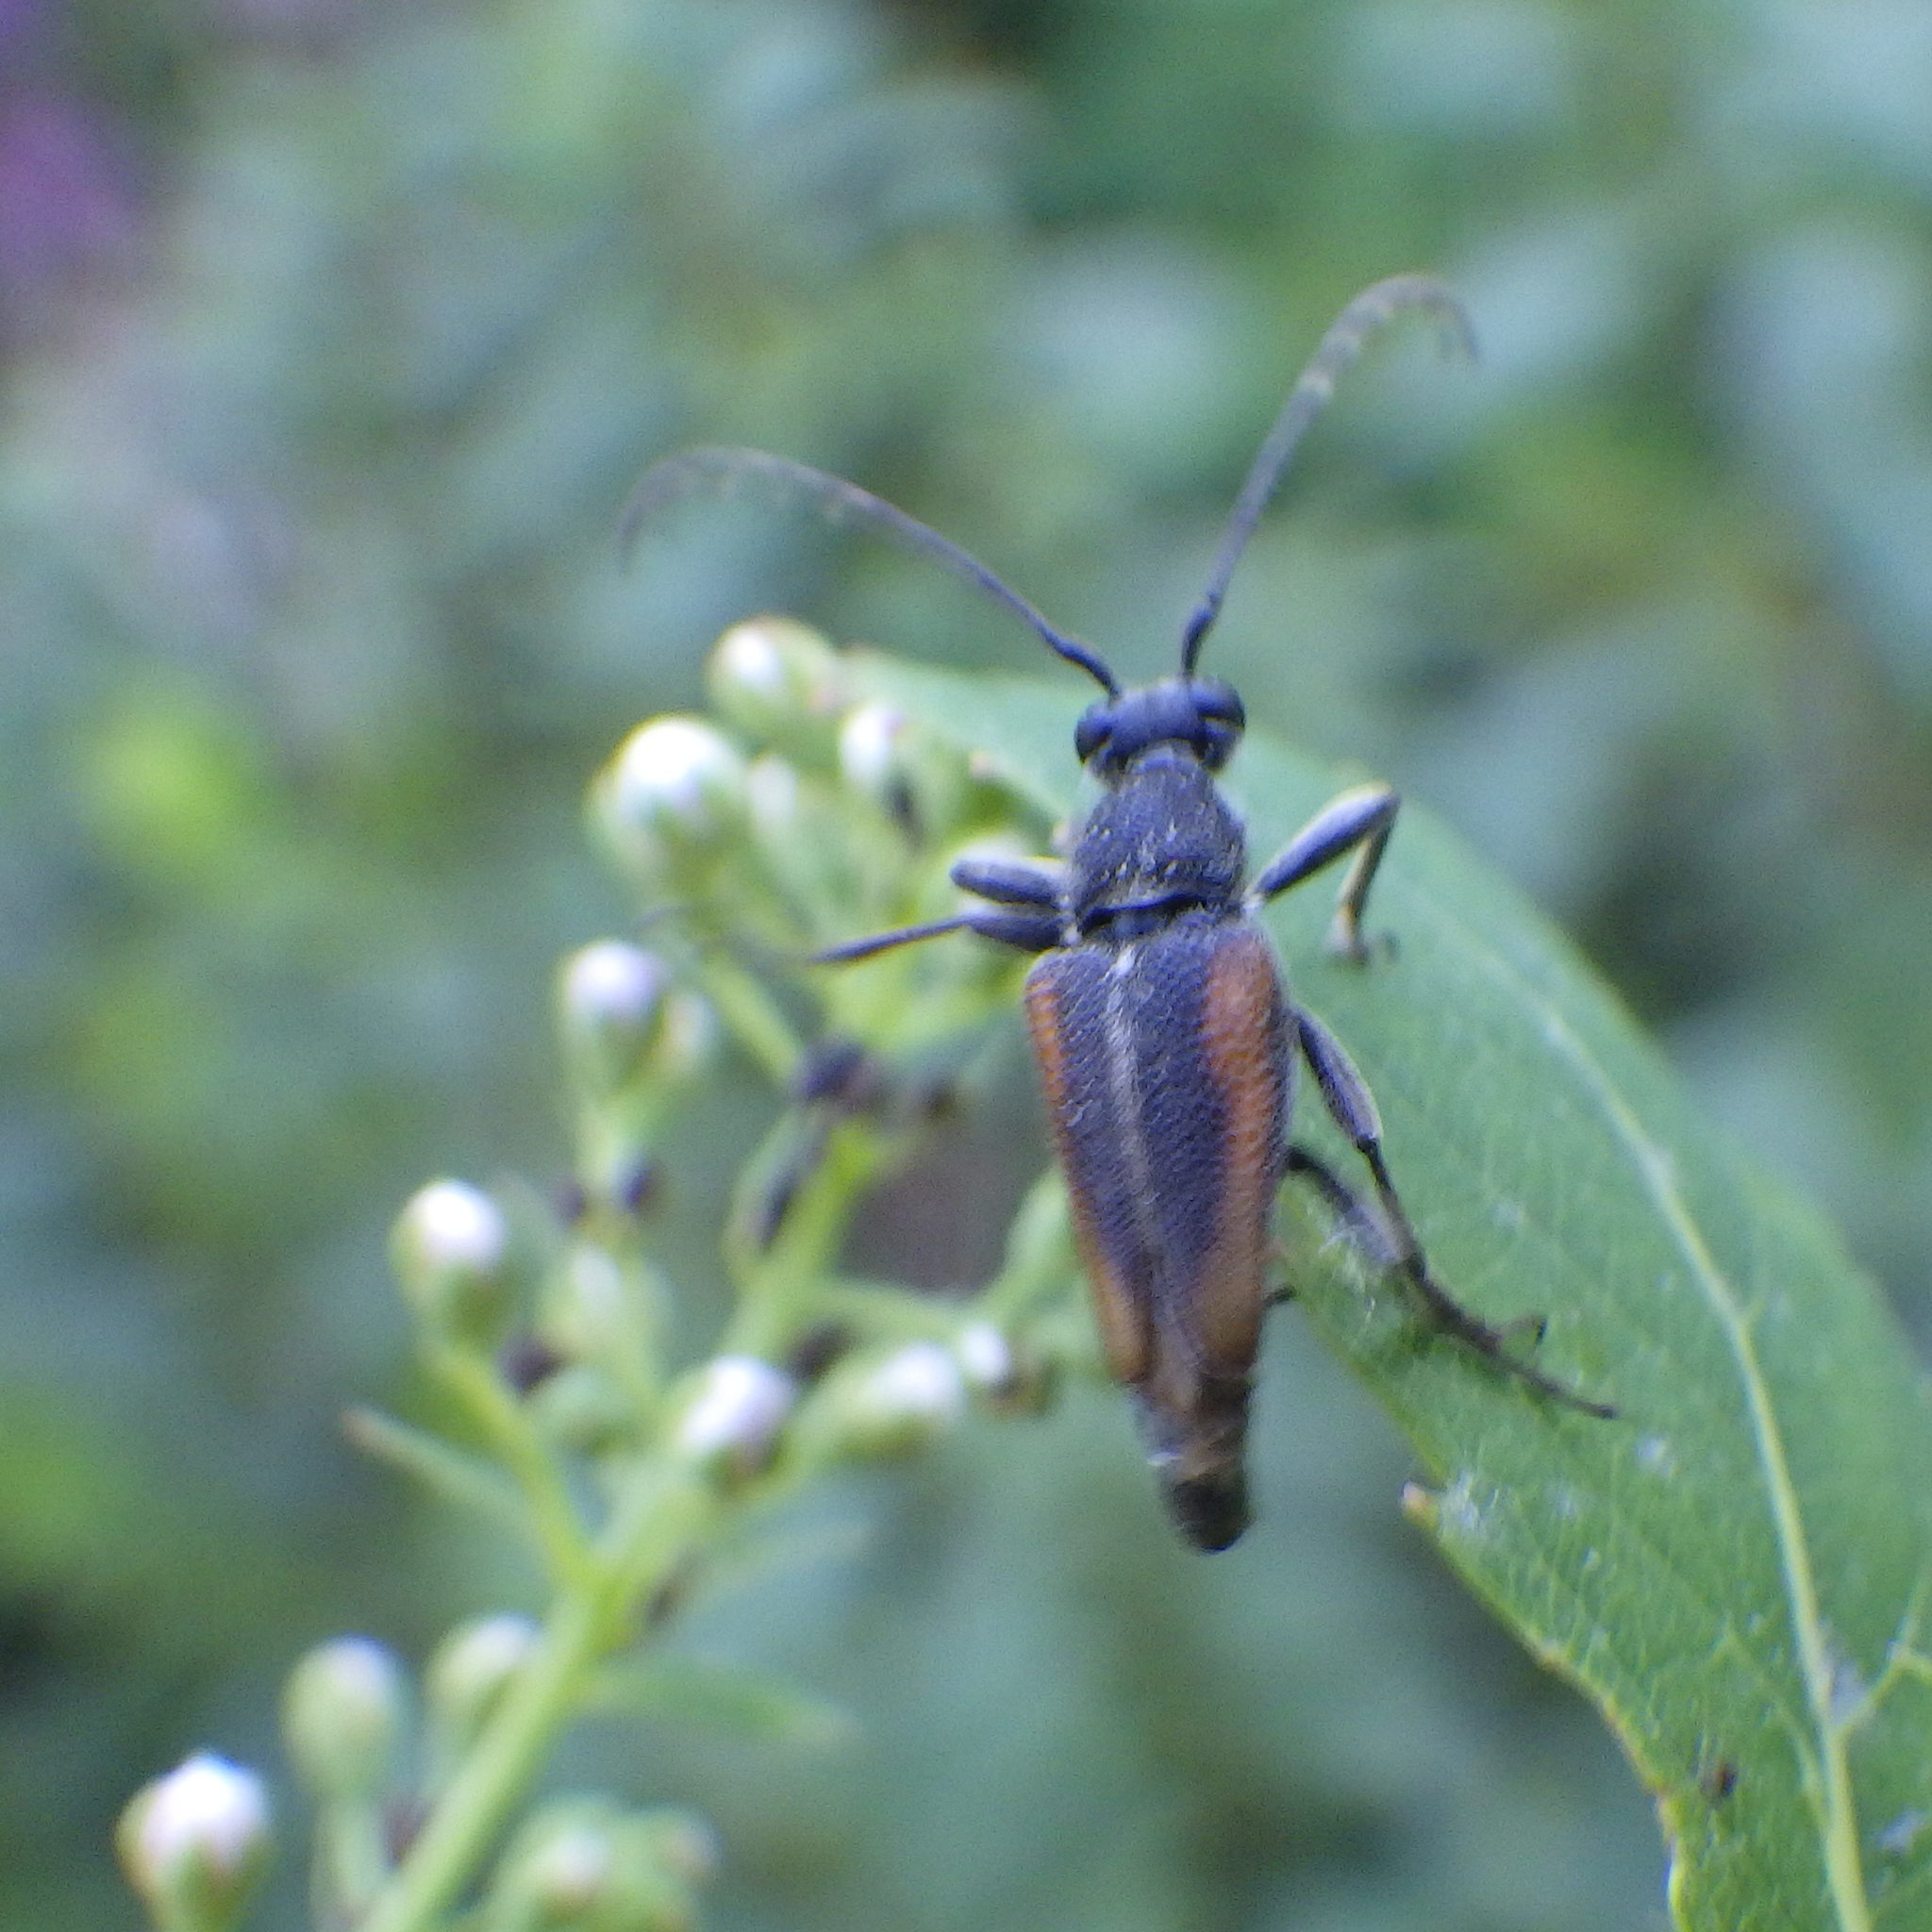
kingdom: Animalia
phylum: Arthropoda
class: Insecta
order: Coleoptera
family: Cerambycidae
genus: Brachyleptura
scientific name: Brachyleptura vagans
